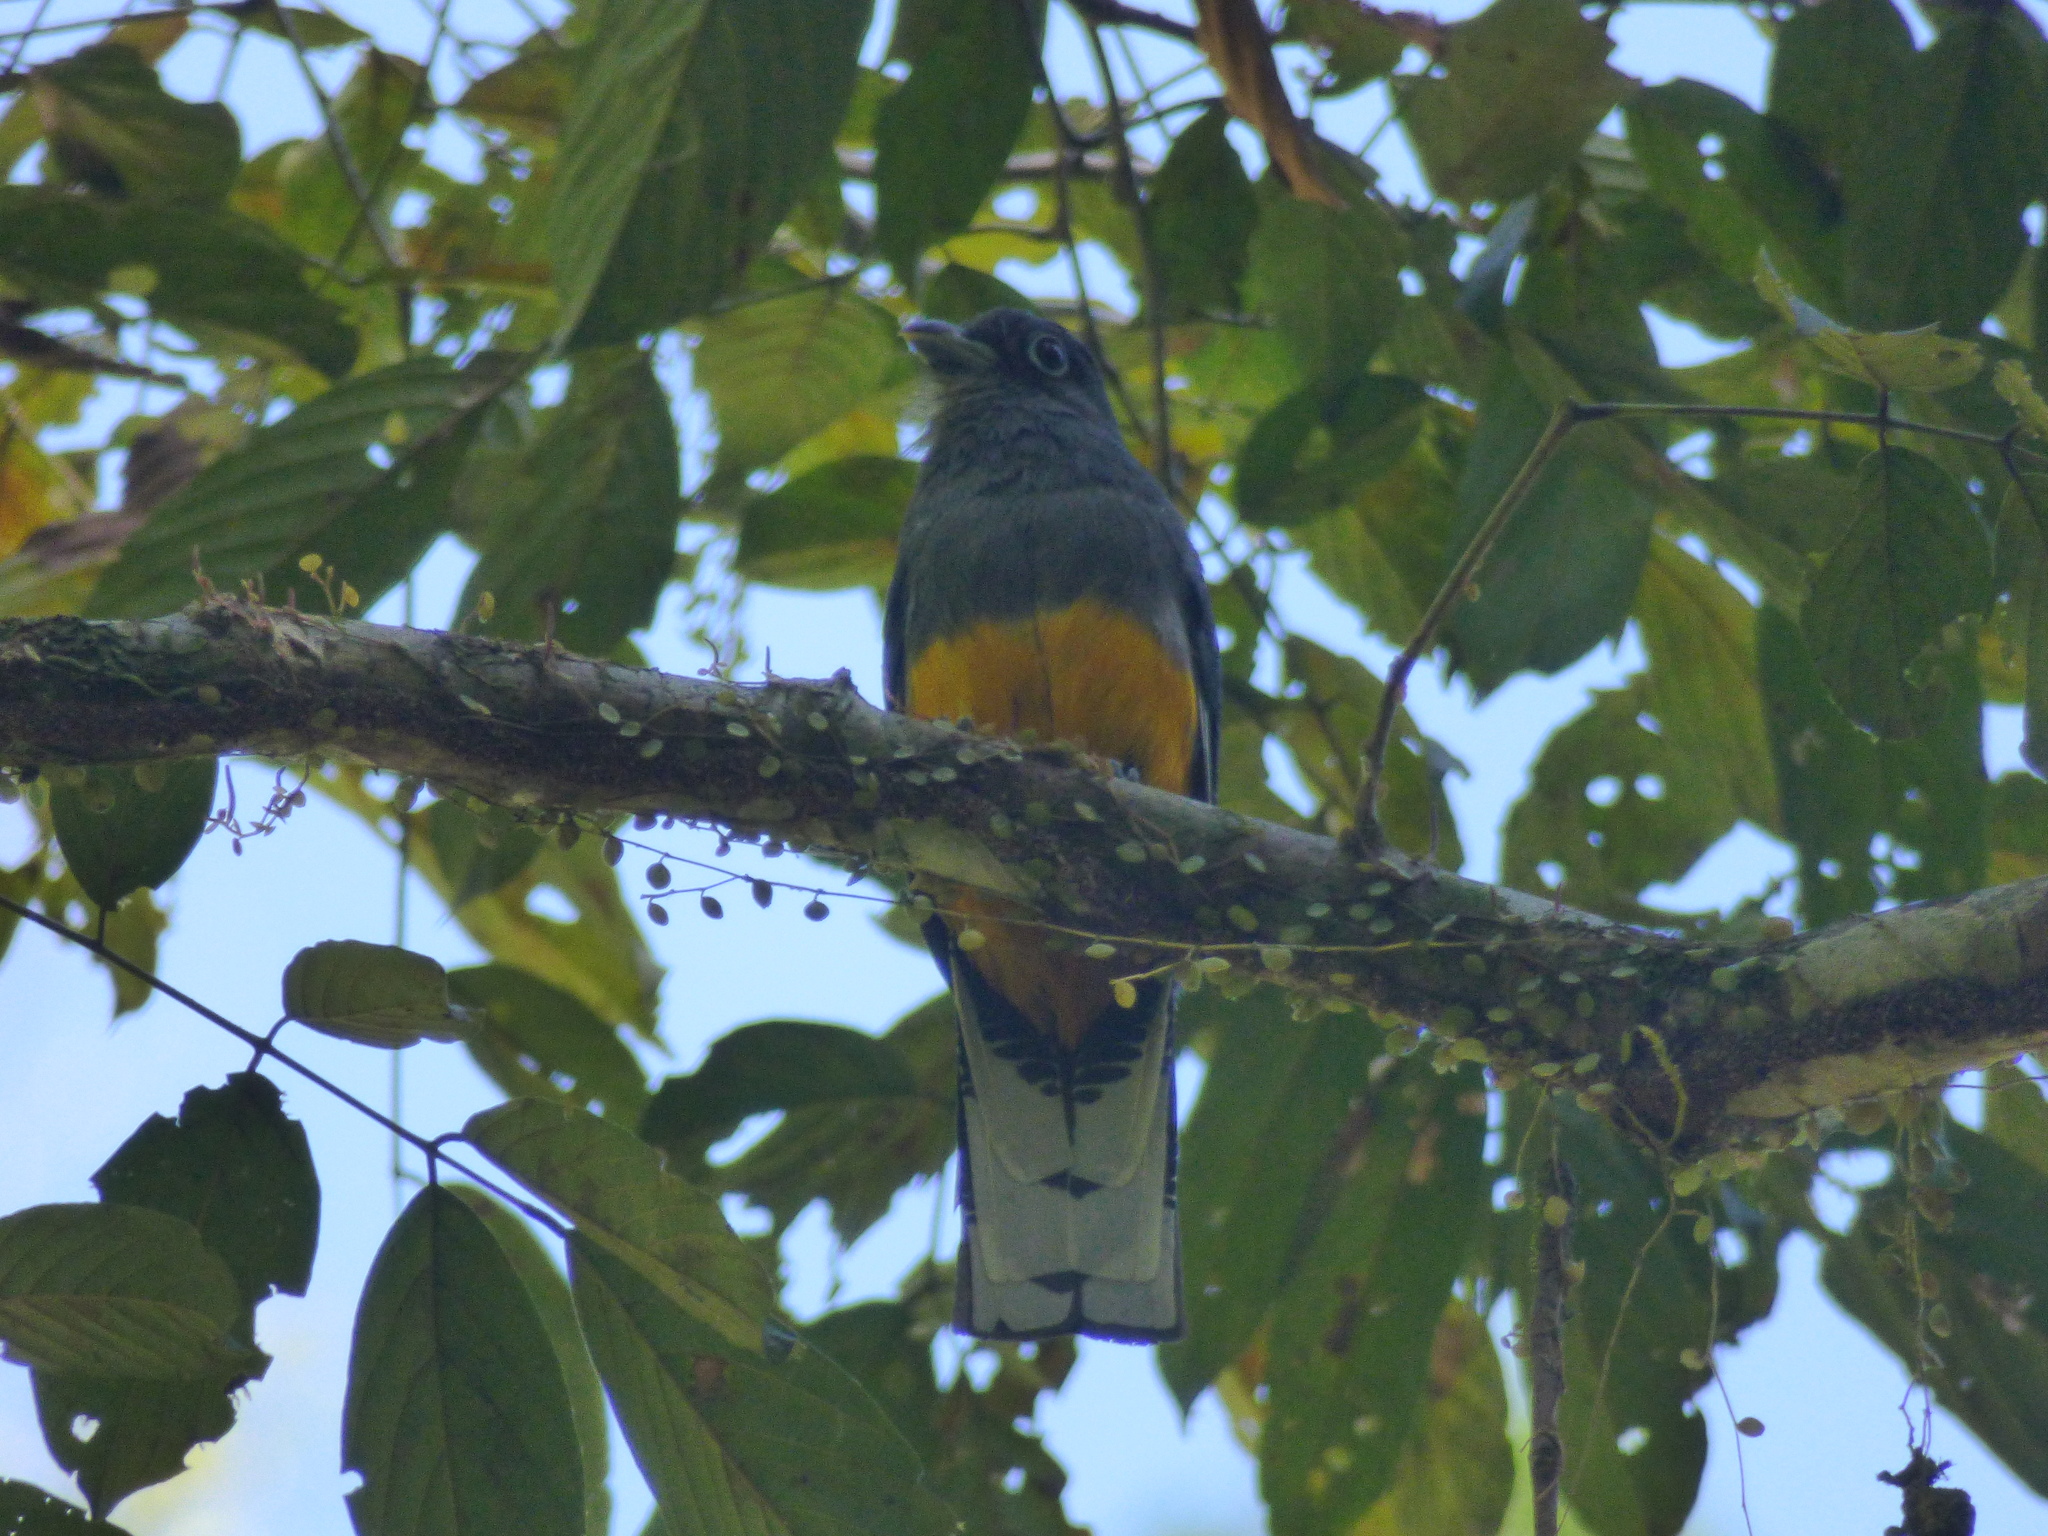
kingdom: Animalia
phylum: Chordata
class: Aves
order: Trogoniformes
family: Trogonidae
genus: Trogon
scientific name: Trogon chionurus
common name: White-tailed trogon
